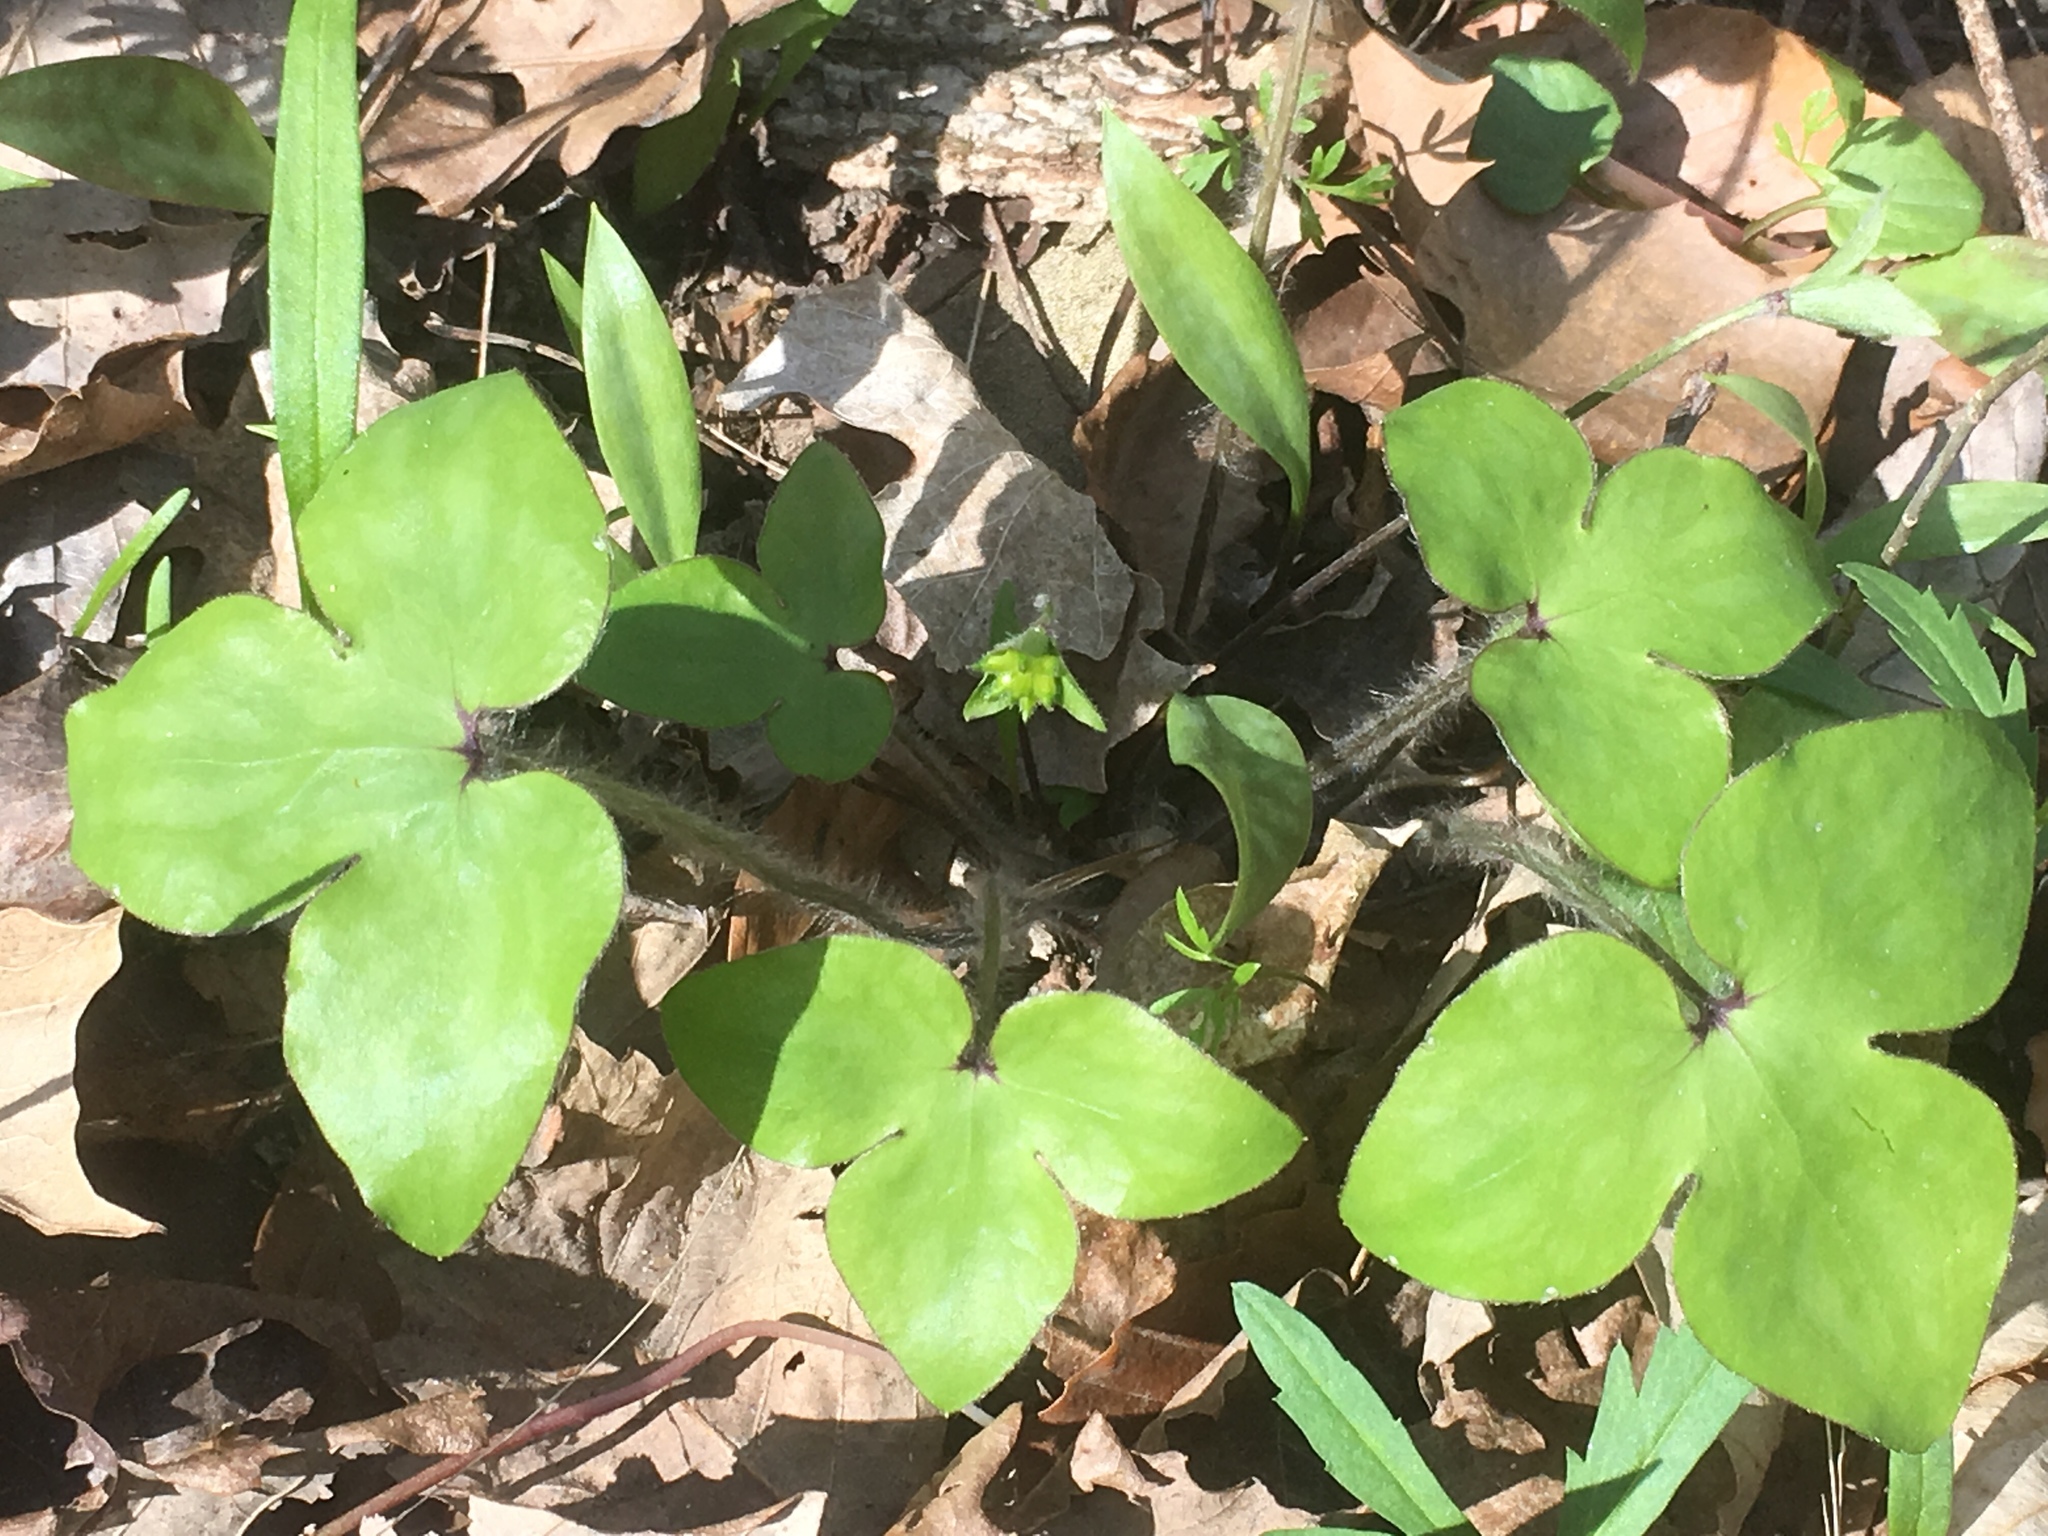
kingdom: Plantae
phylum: Tracheophyta
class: Magnoliopsida
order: Ranunculales
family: Ranunculaceae
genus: Hepatica
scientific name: Hepatica acutiloba
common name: Sharp-lobed hepatica
